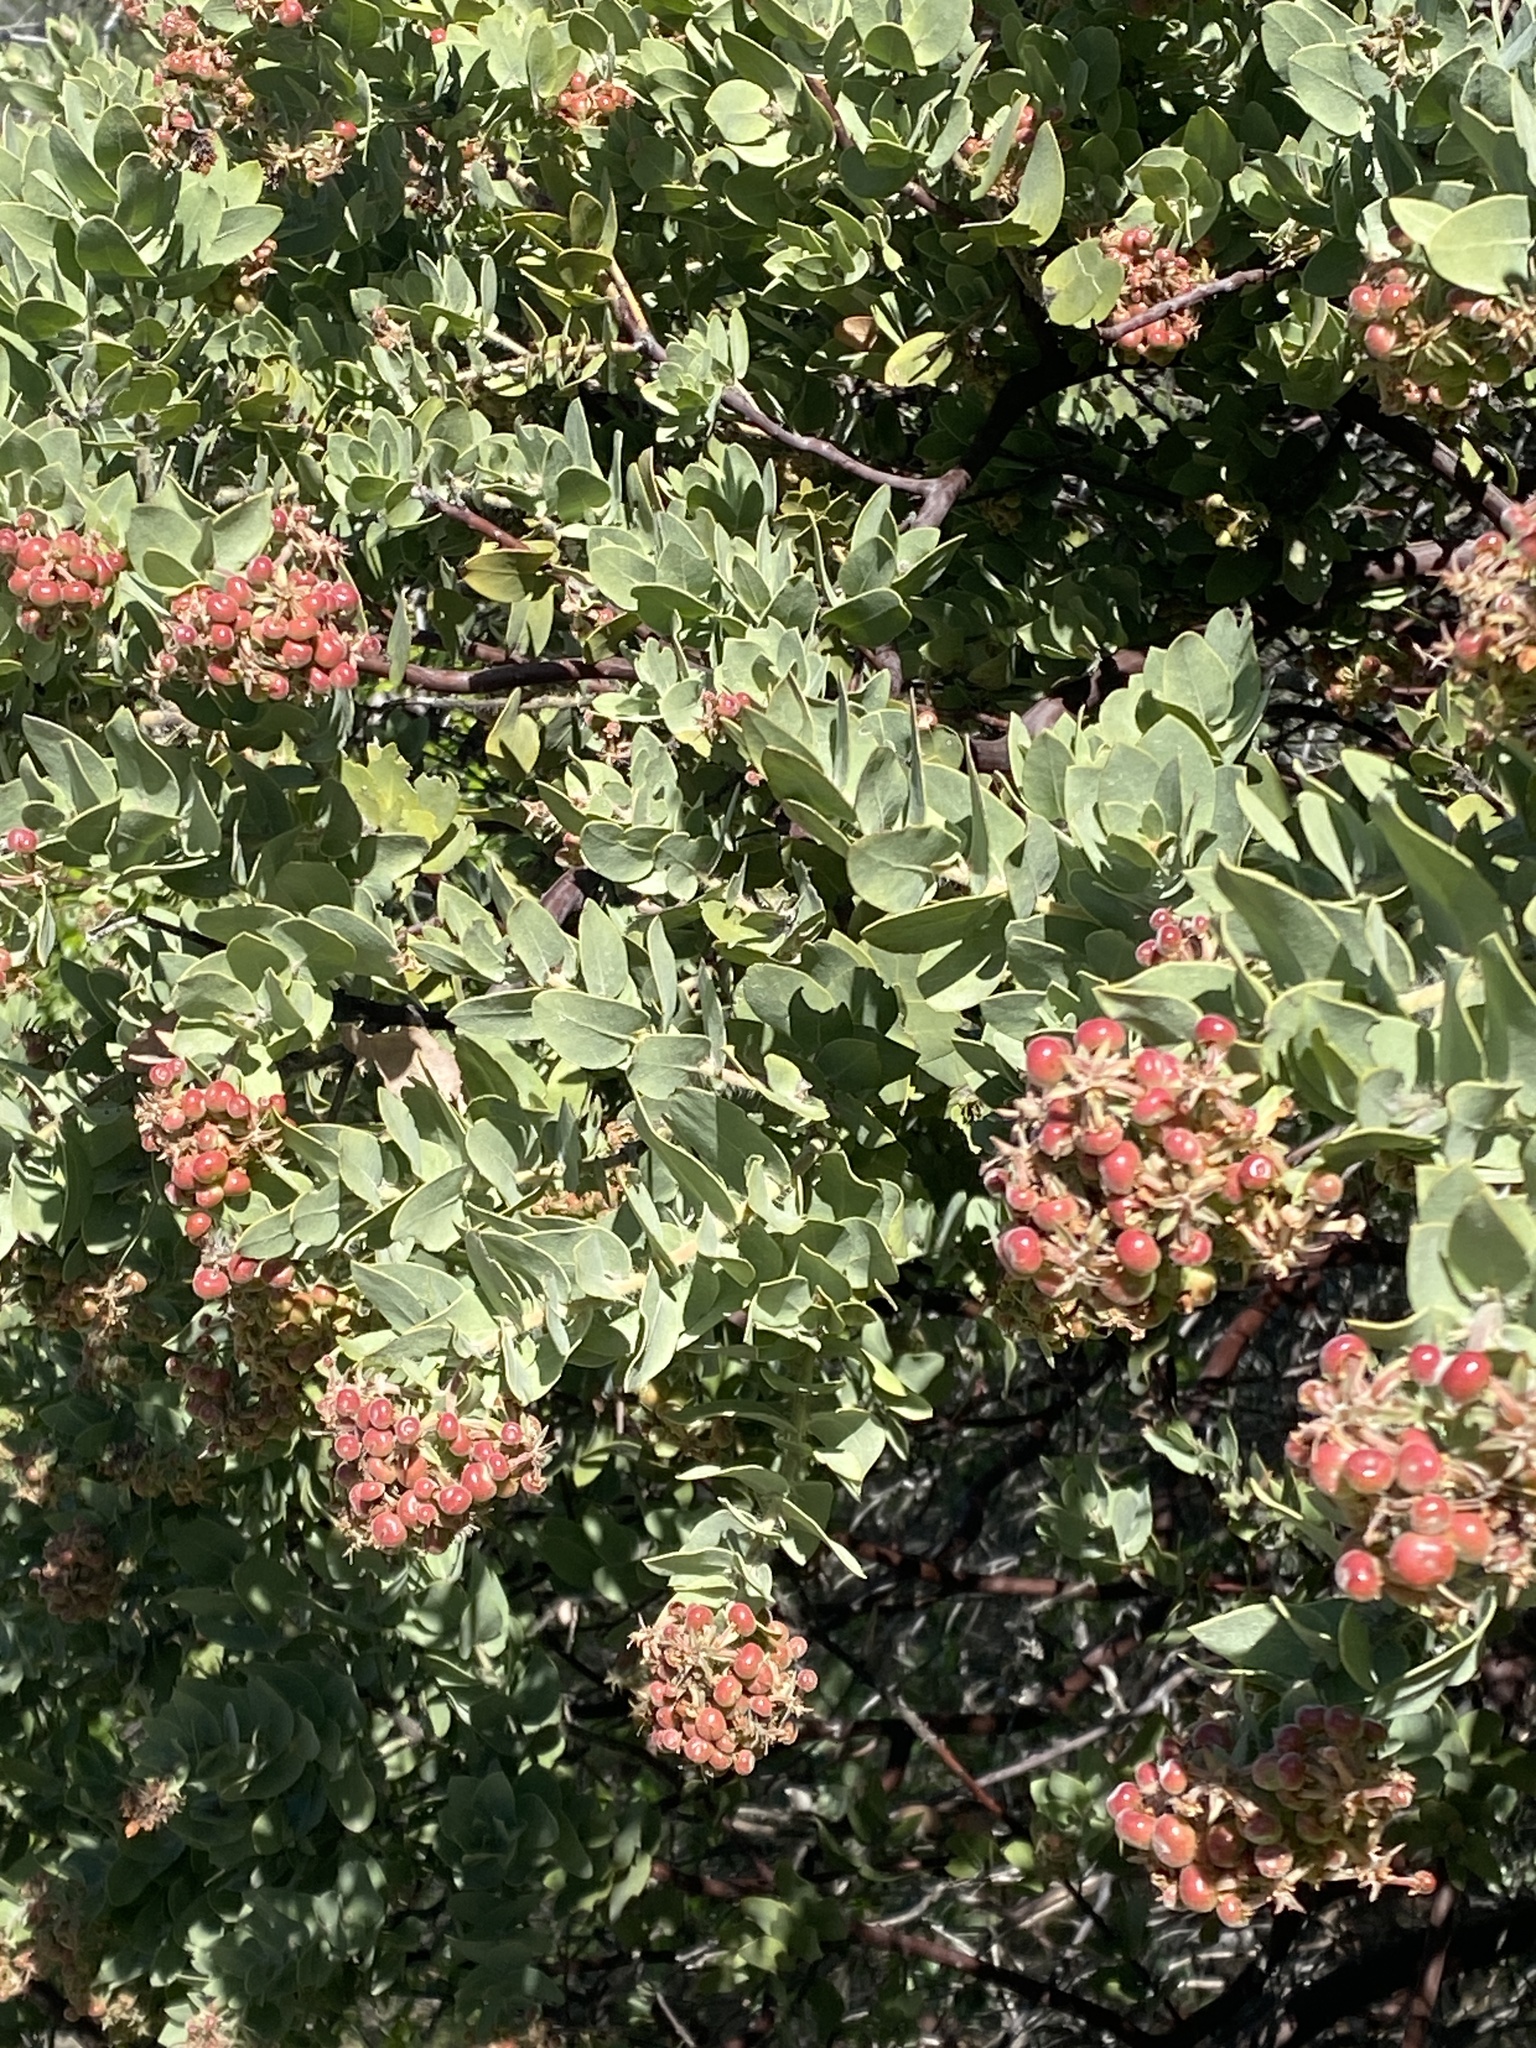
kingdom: Plantae
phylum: Tracheophyta
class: Magnoliopsida
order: Ericales
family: Ericaceae
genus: Arctostaphylos
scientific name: Arctostaphylos auriculata
